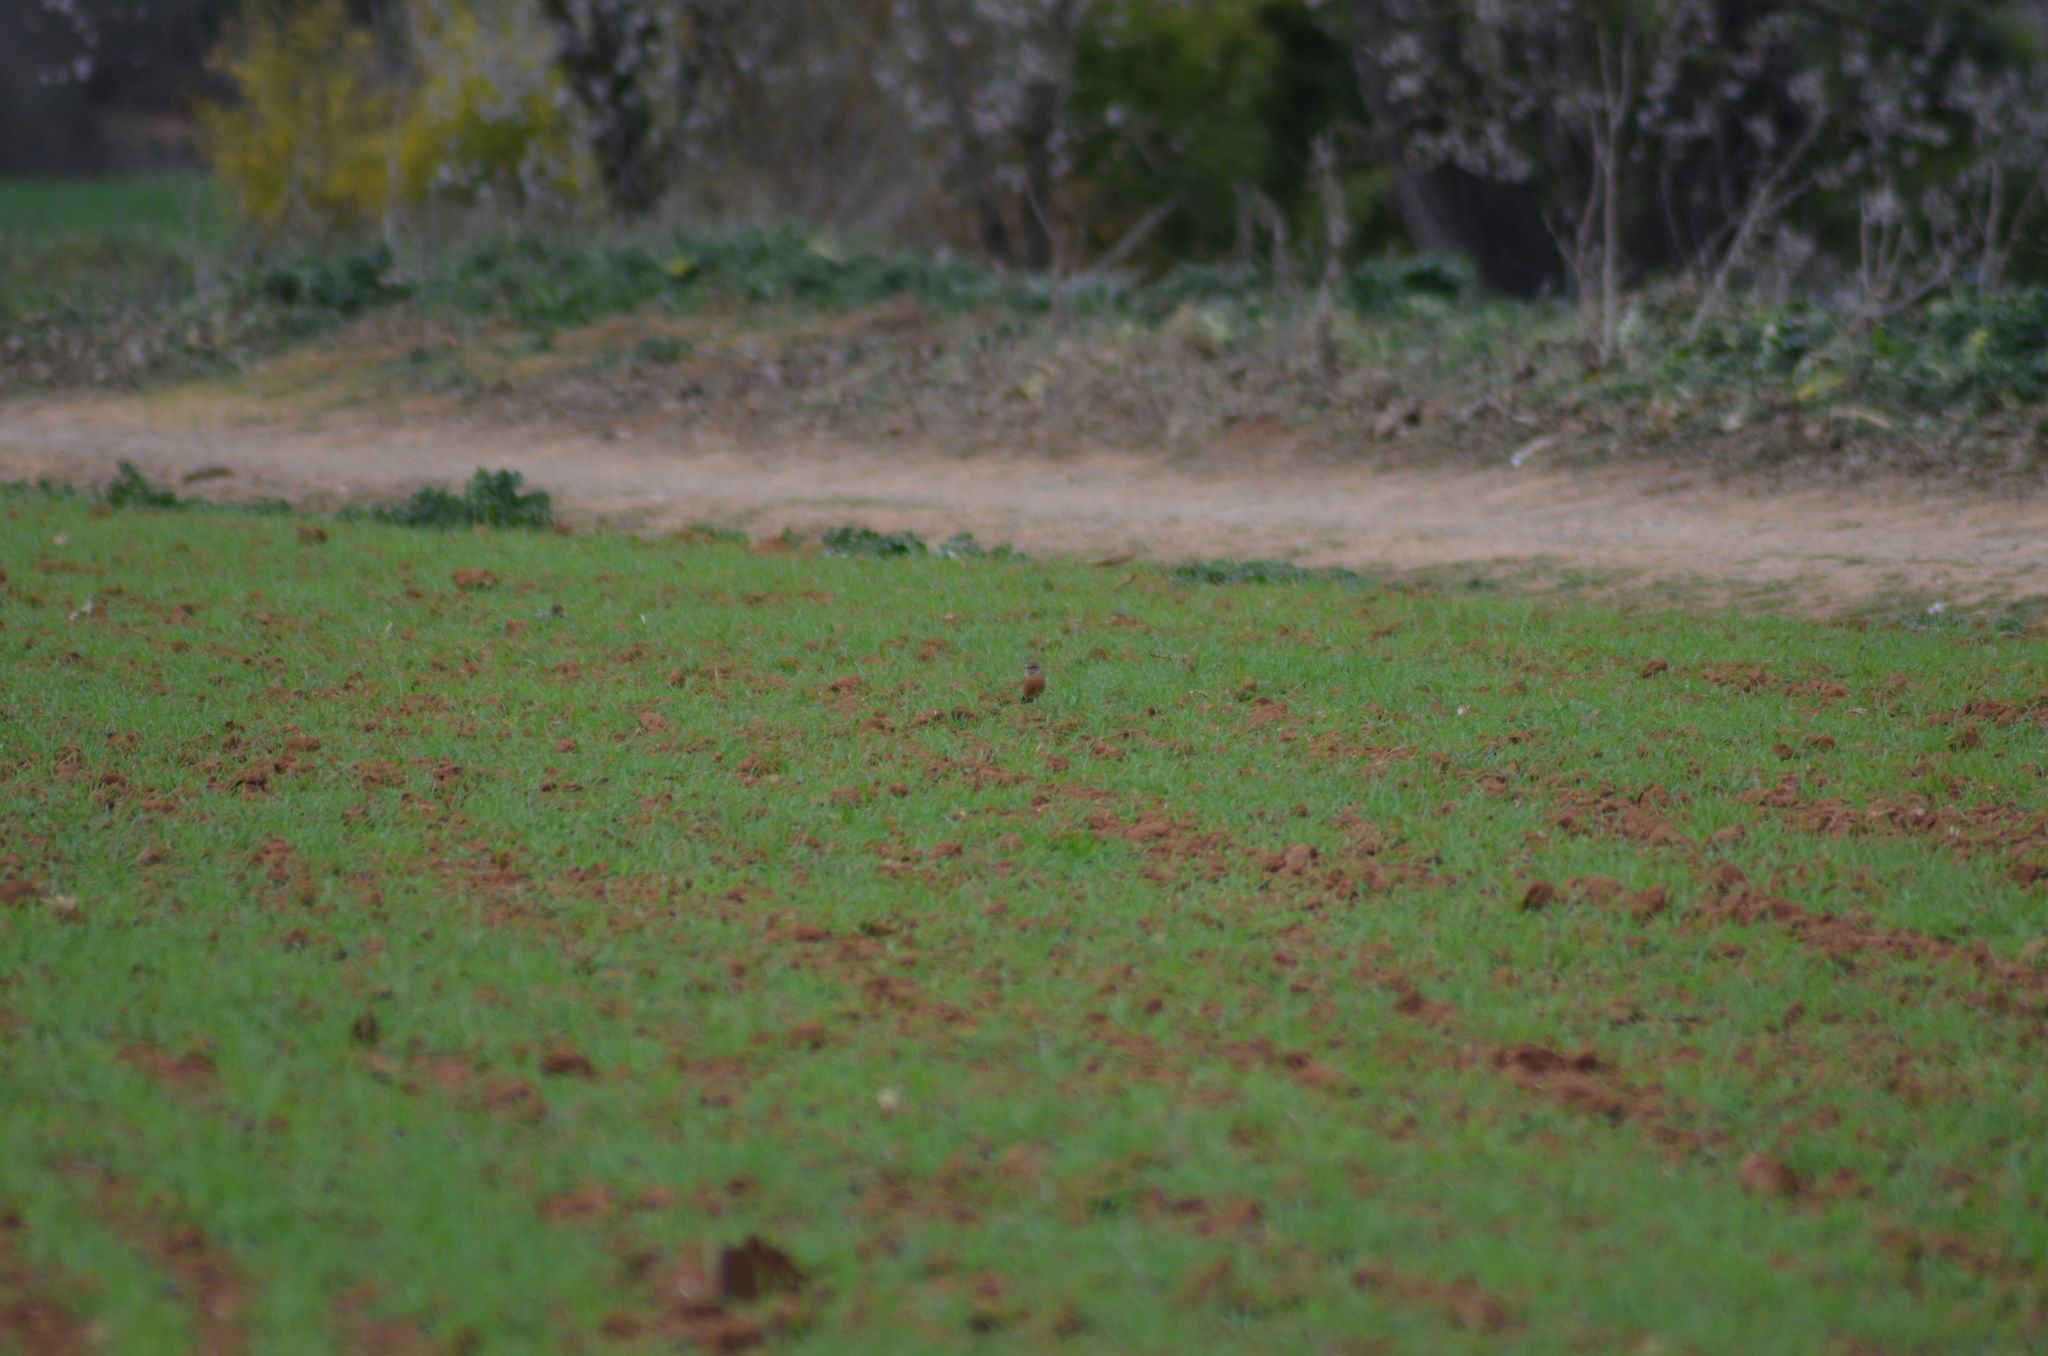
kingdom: Animalia
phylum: Chordata
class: Aves
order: Passeriformes
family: Muscicapidae
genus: Saxicola
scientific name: Saxicola rubicola
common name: European stonechat
